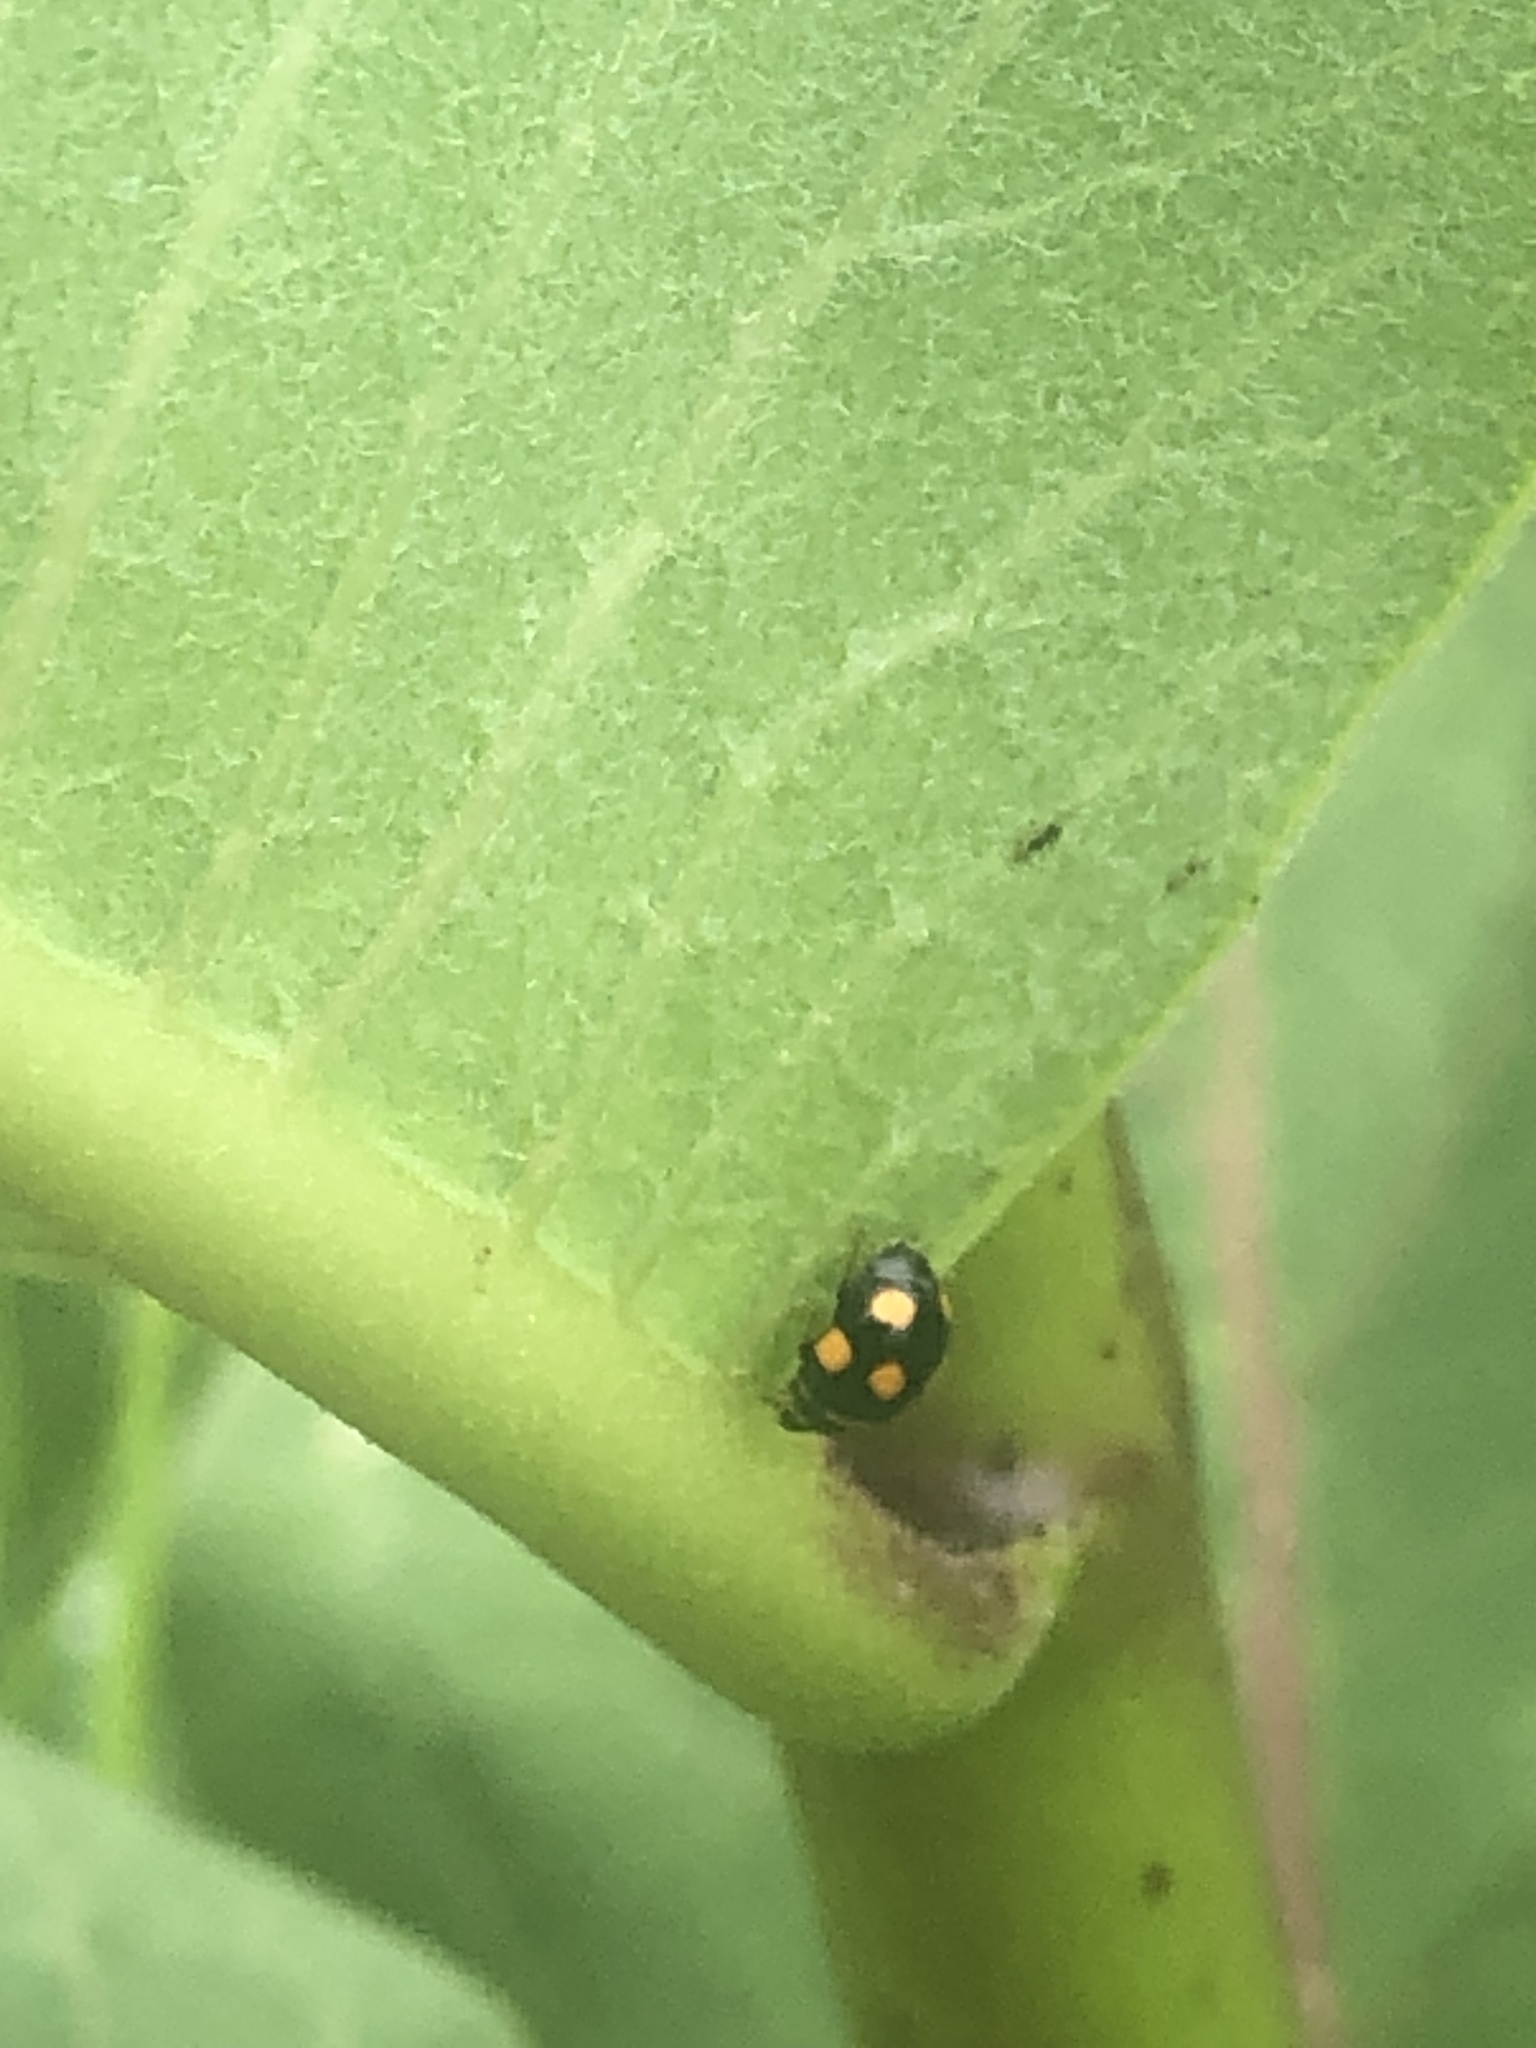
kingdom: Animalia
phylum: Arthropoda
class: Insecta
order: Coleoptera
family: Coccinellidae
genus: Brachiacantha
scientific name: Brachiacantha ursina
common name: Ursine spurleg lady beetle
